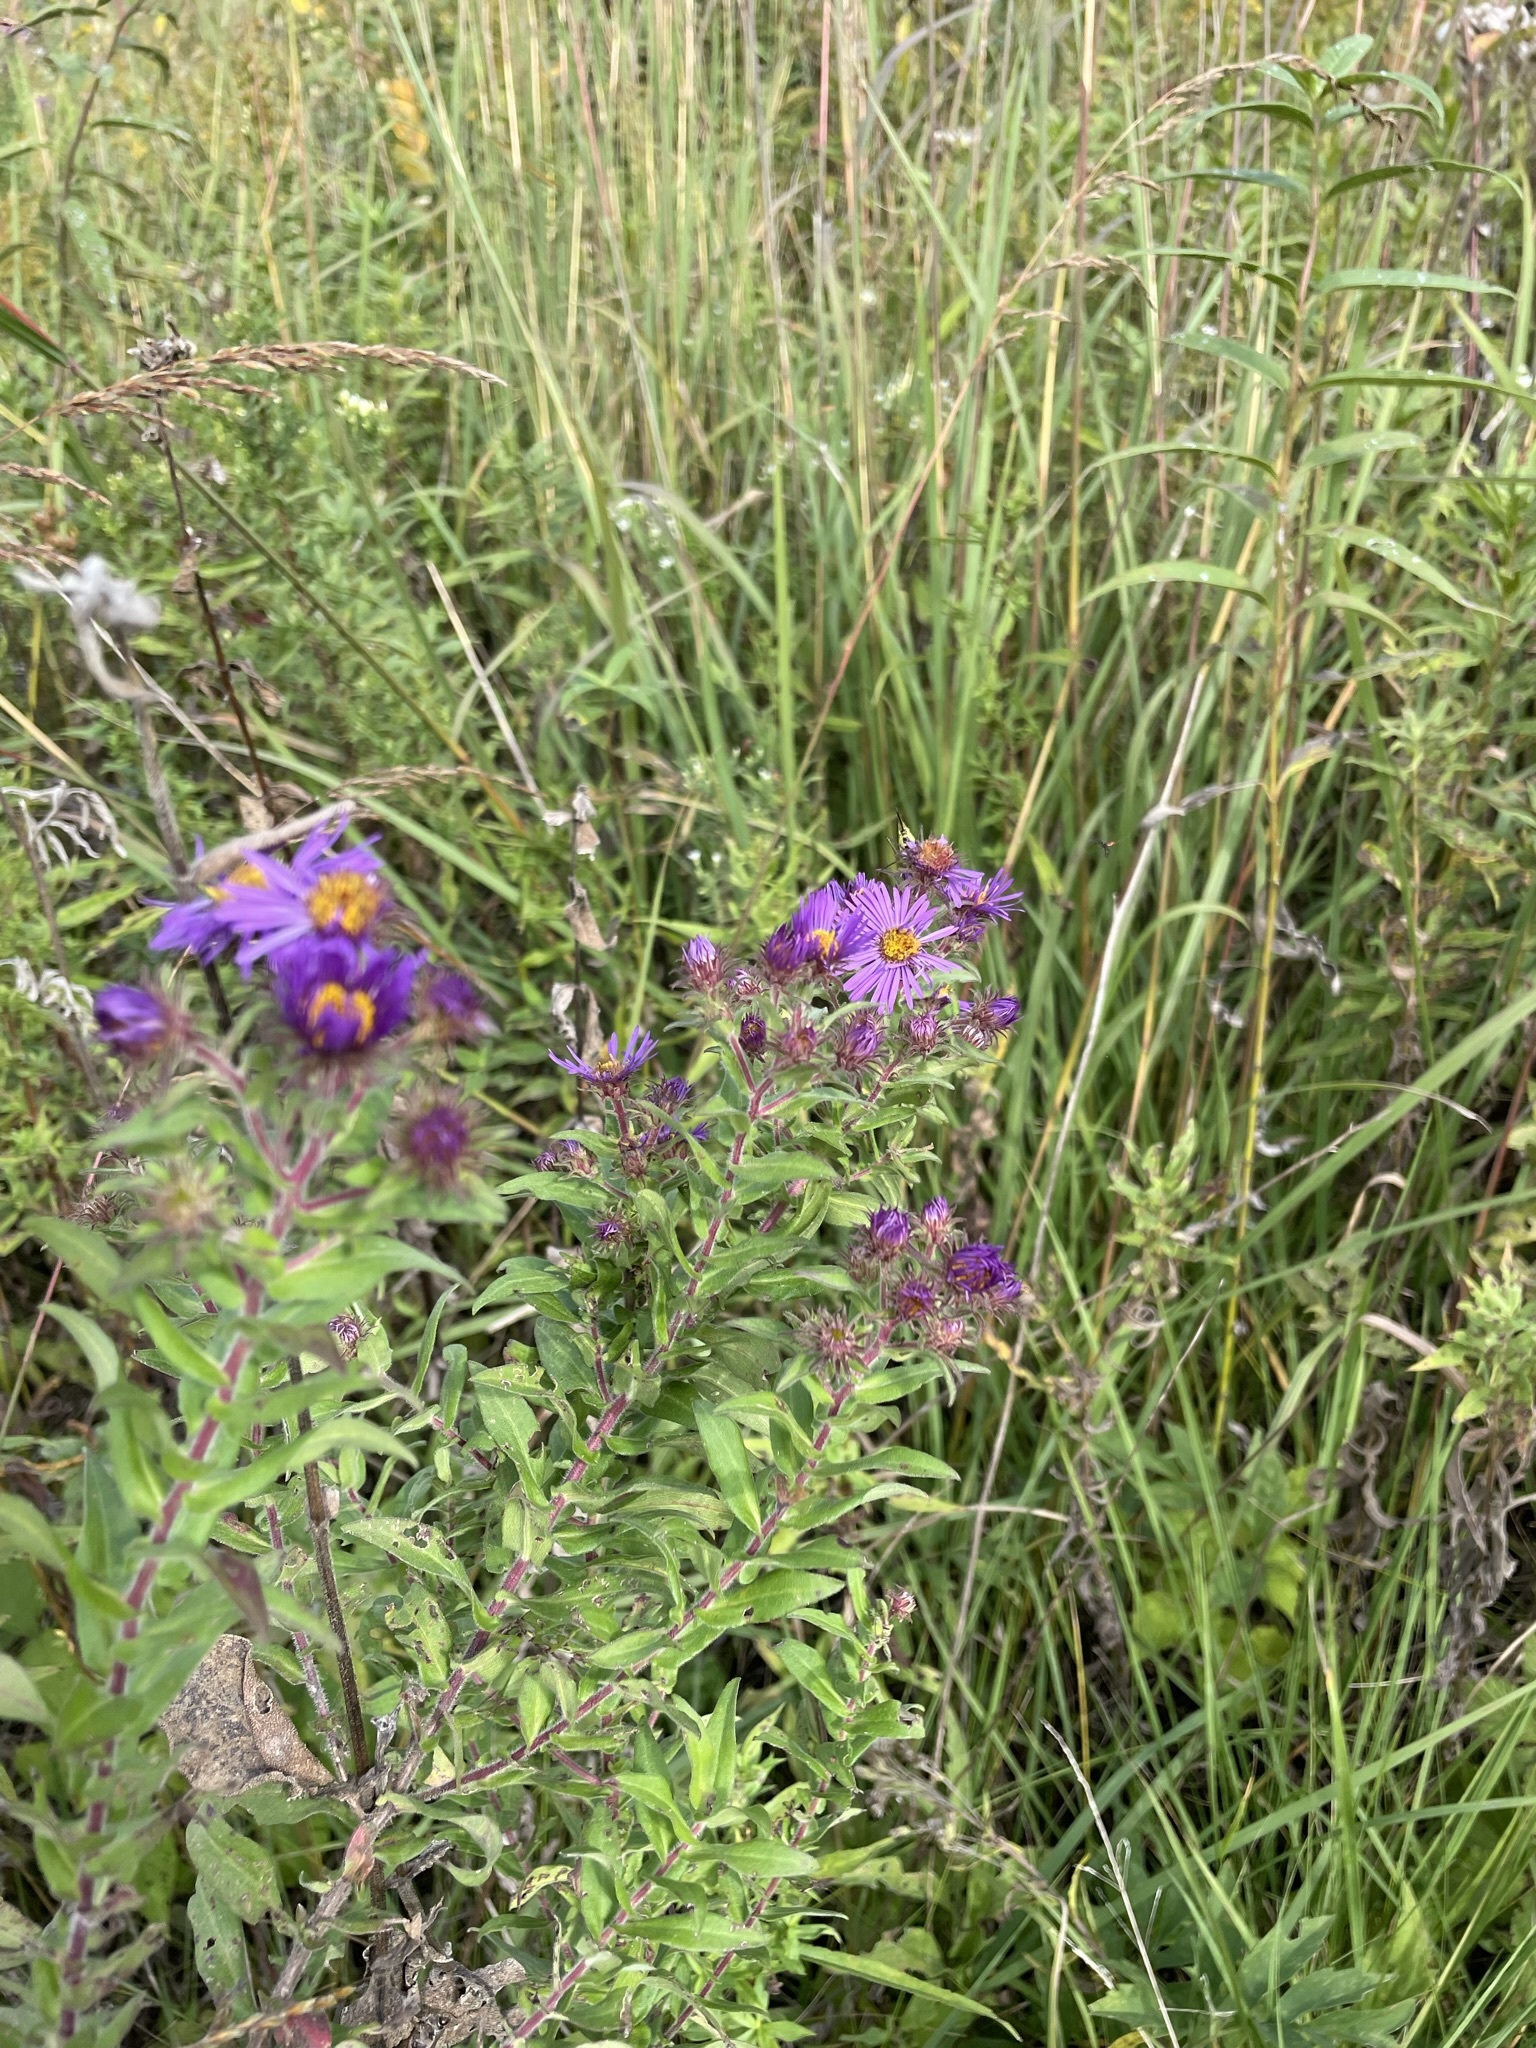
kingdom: Plantae
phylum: Tracheophyta
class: Magnoliopsida
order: Asterales
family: Asteraceae
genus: Symphyotrichum
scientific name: Symphyotrichum novae-angliae
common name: Michaelmas daisy
